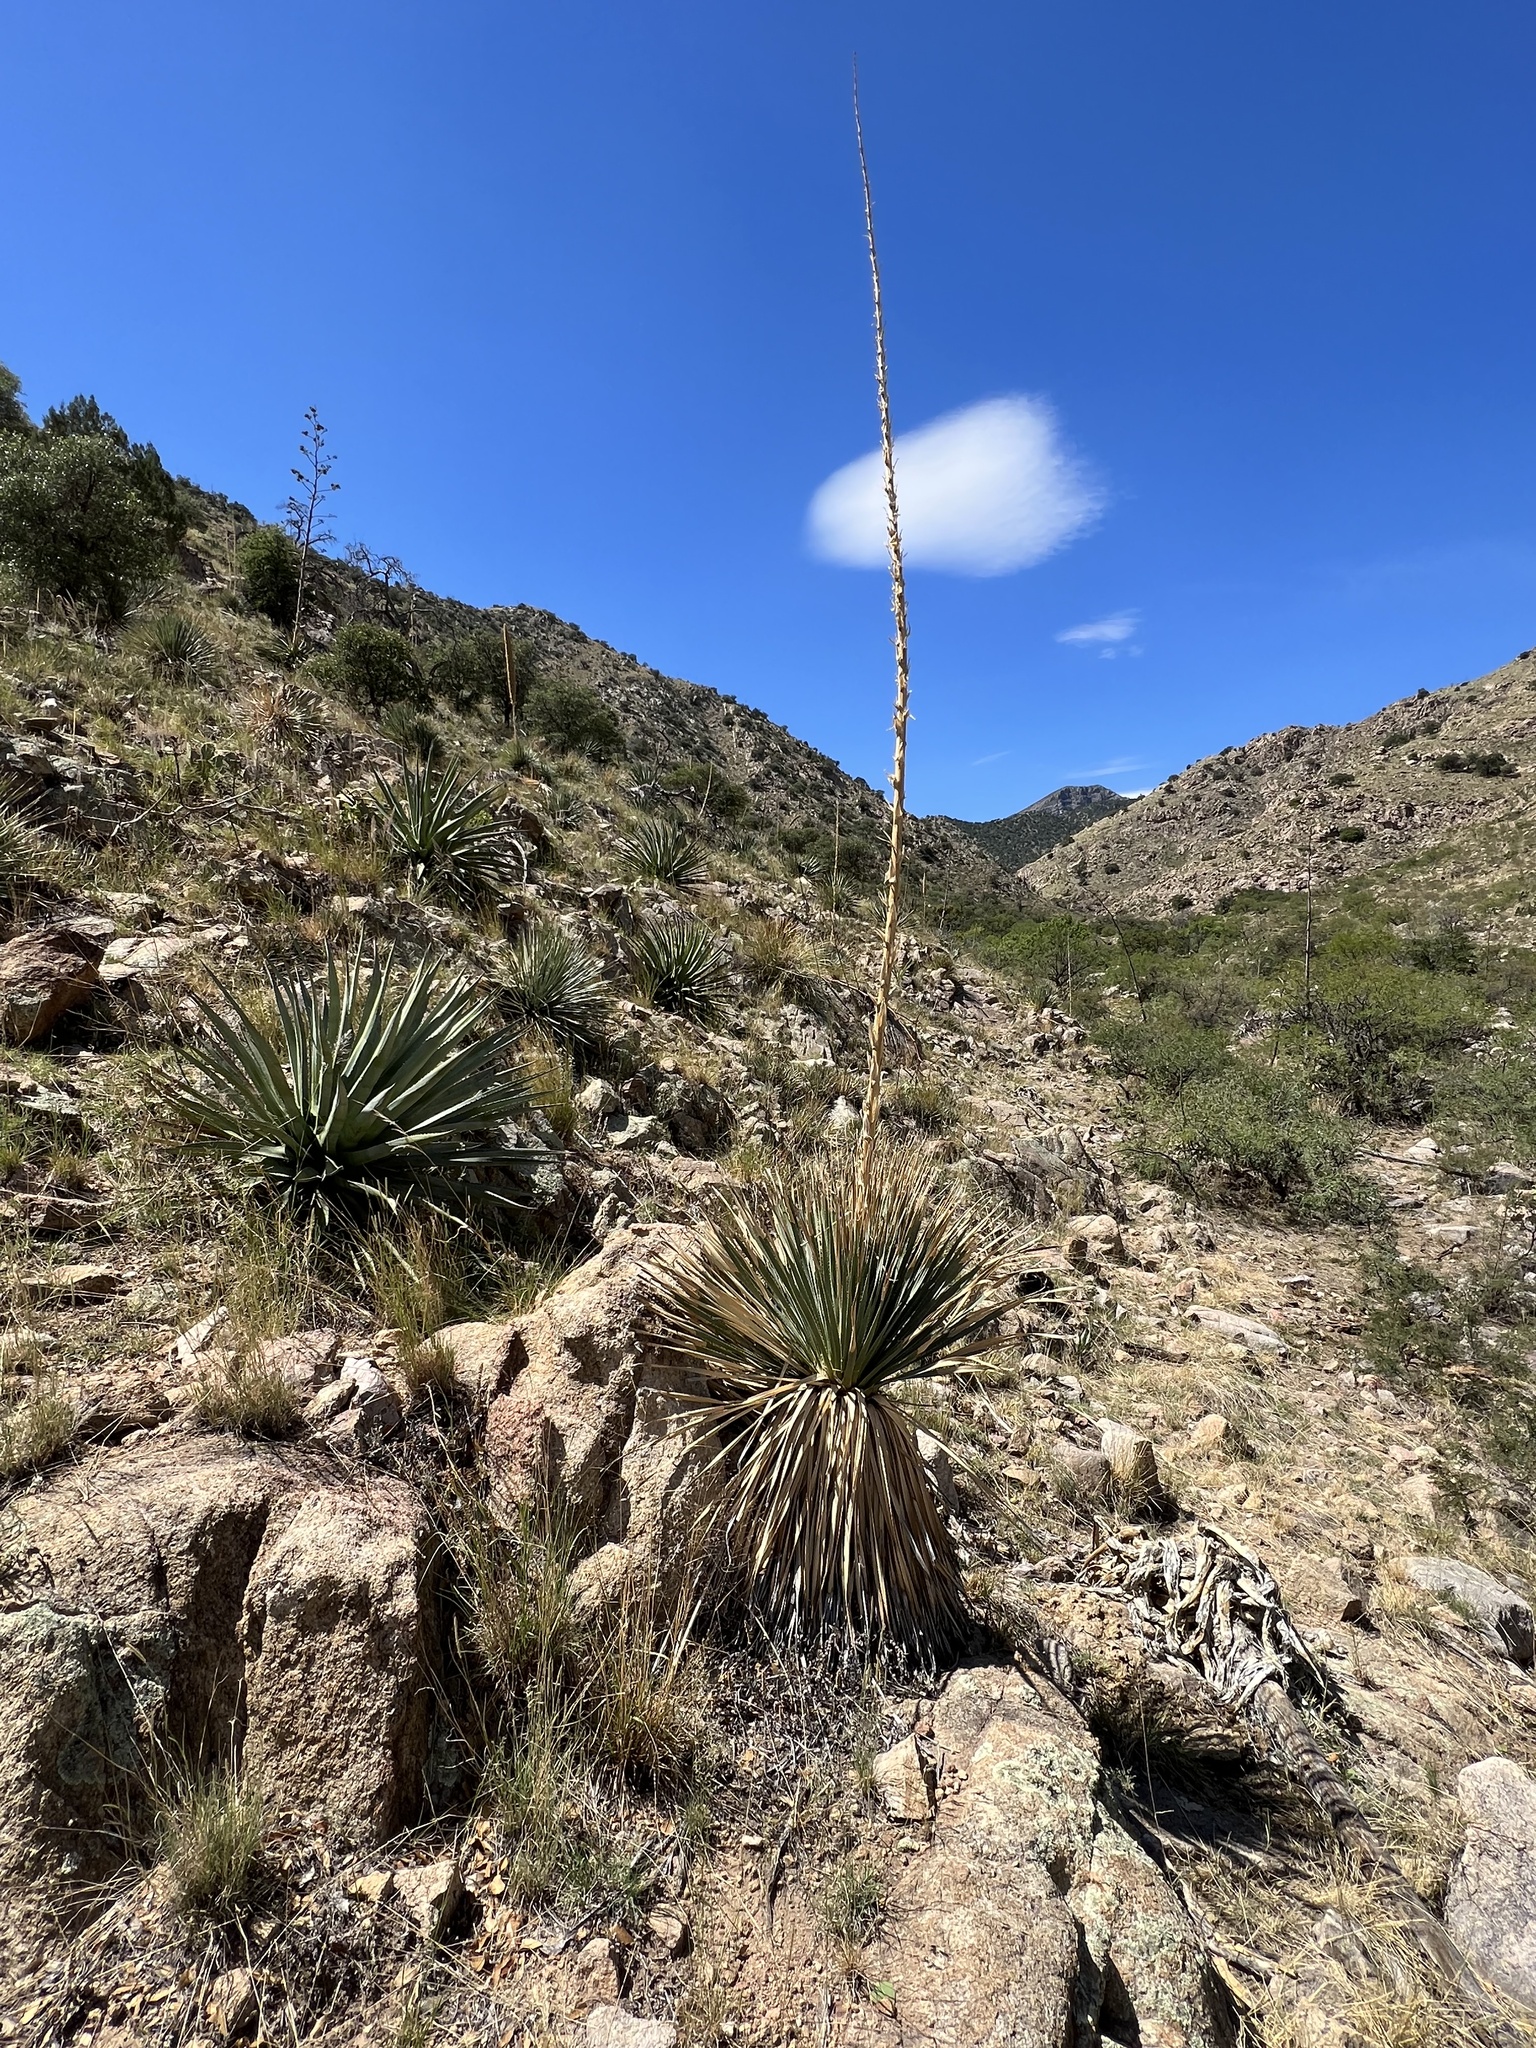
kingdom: Plantae
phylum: Tracheophyta
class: Liliopsida
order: Asparagales
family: Asparagaceae
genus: Dasylirion
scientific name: Dasylirion wheeleri
